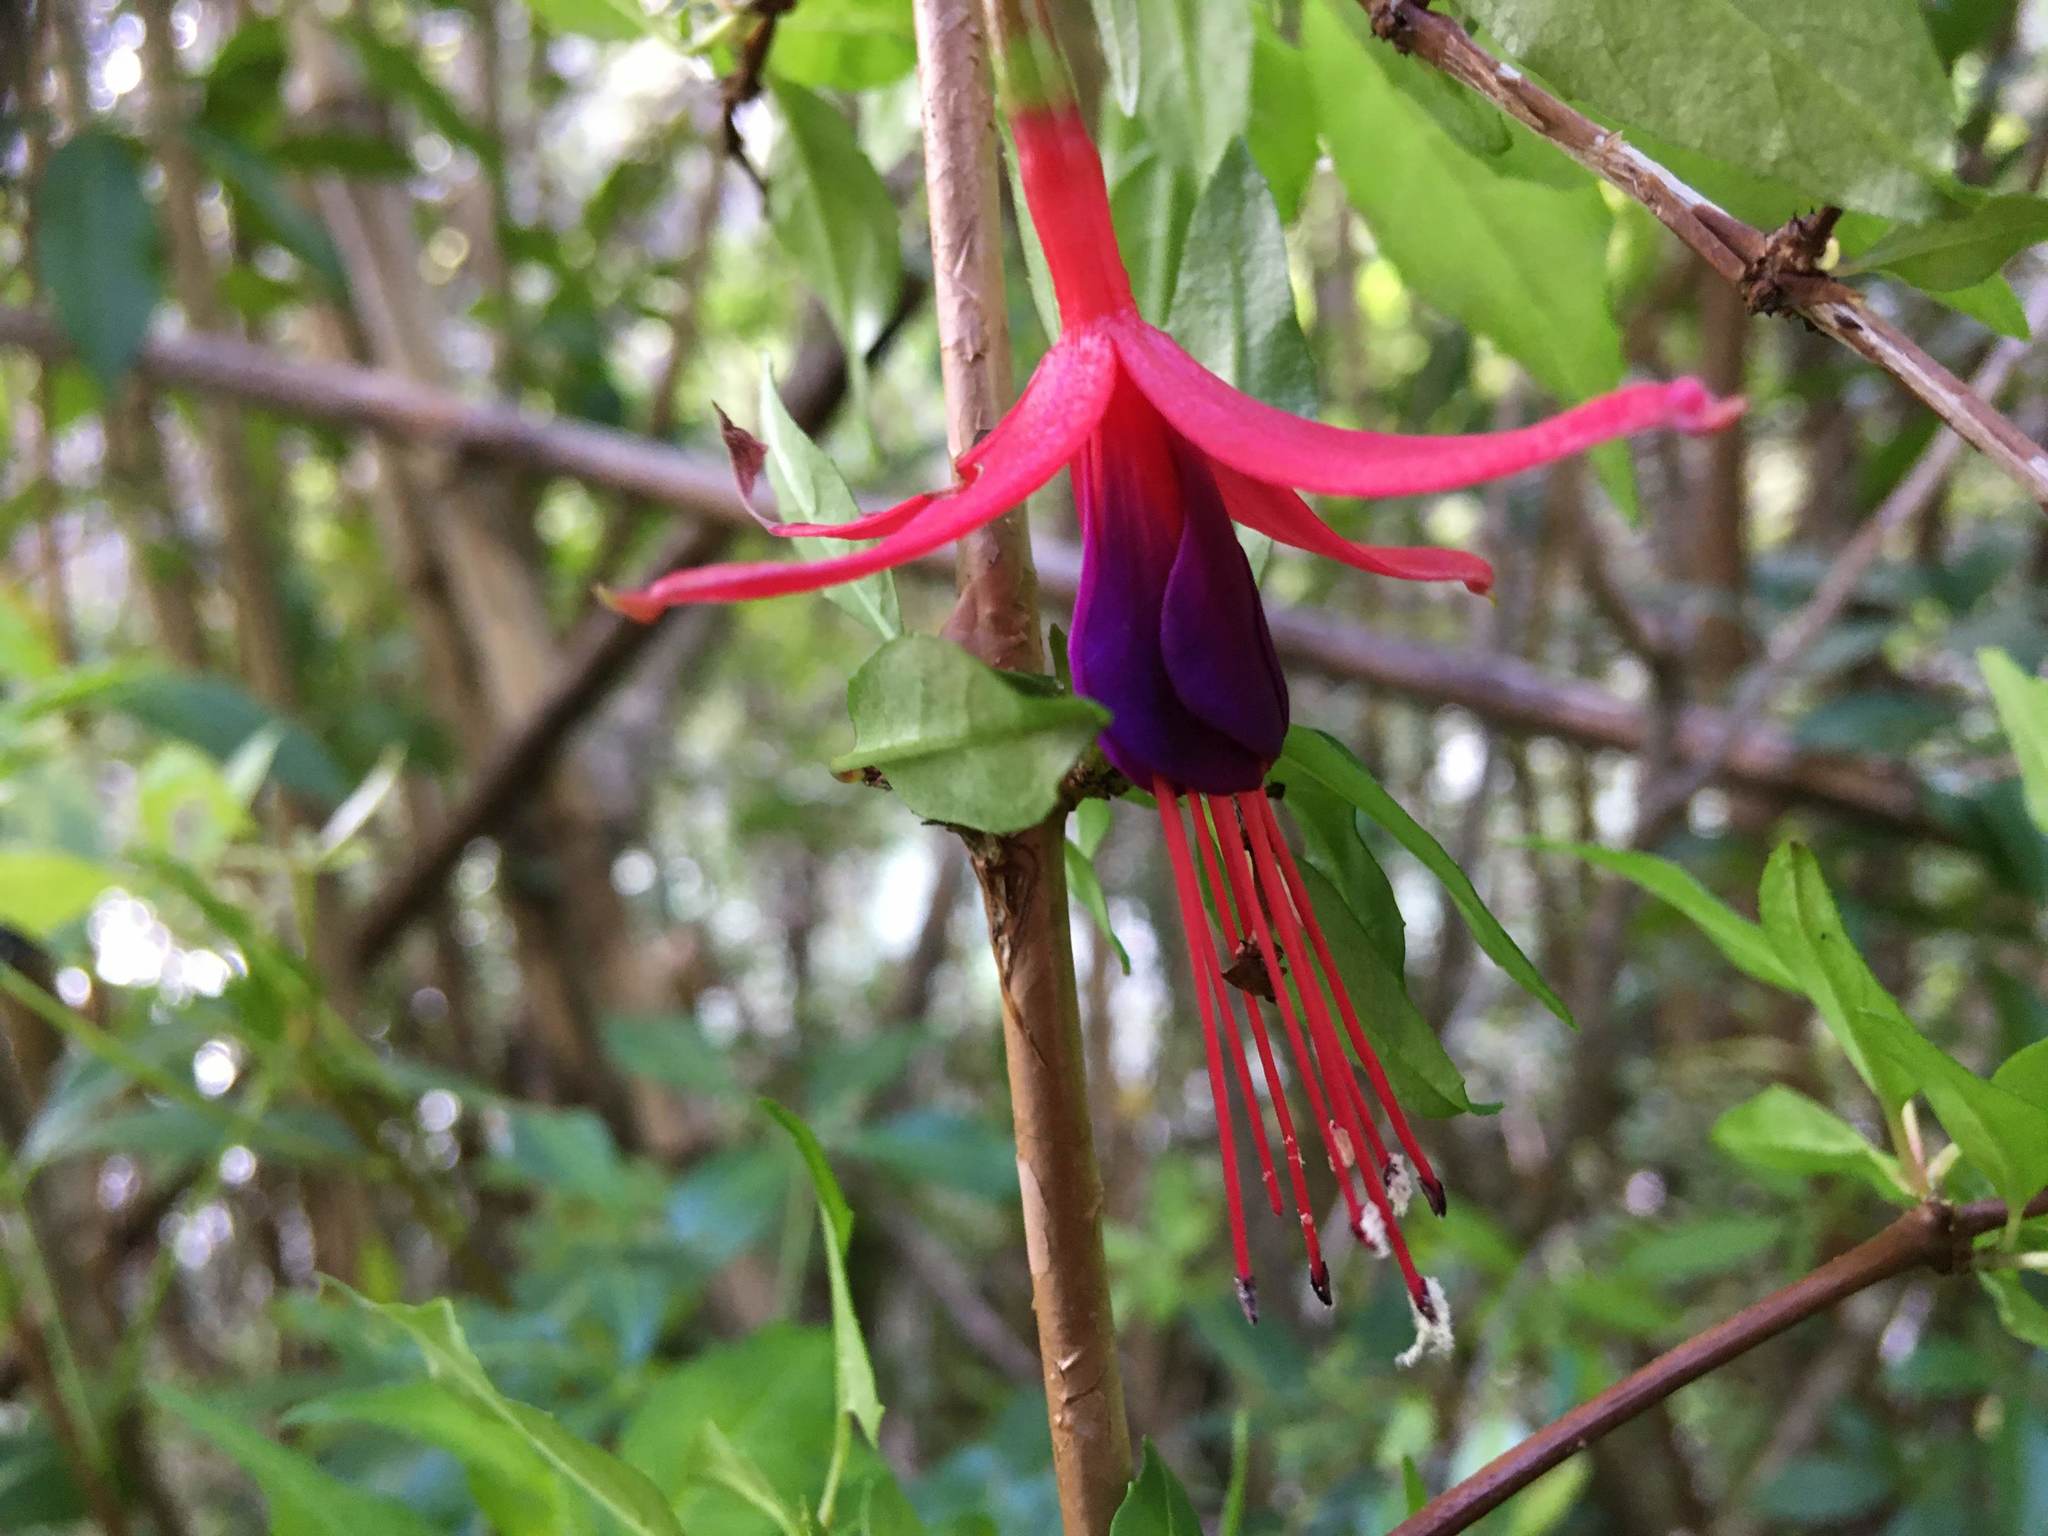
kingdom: Plantae
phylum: Tracheophyta
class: Magnoliopsida
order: Myrtales
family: Onagraceae
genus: Fuchsia
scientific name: Fuchsia magellanica
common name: Hardy fuchsia
